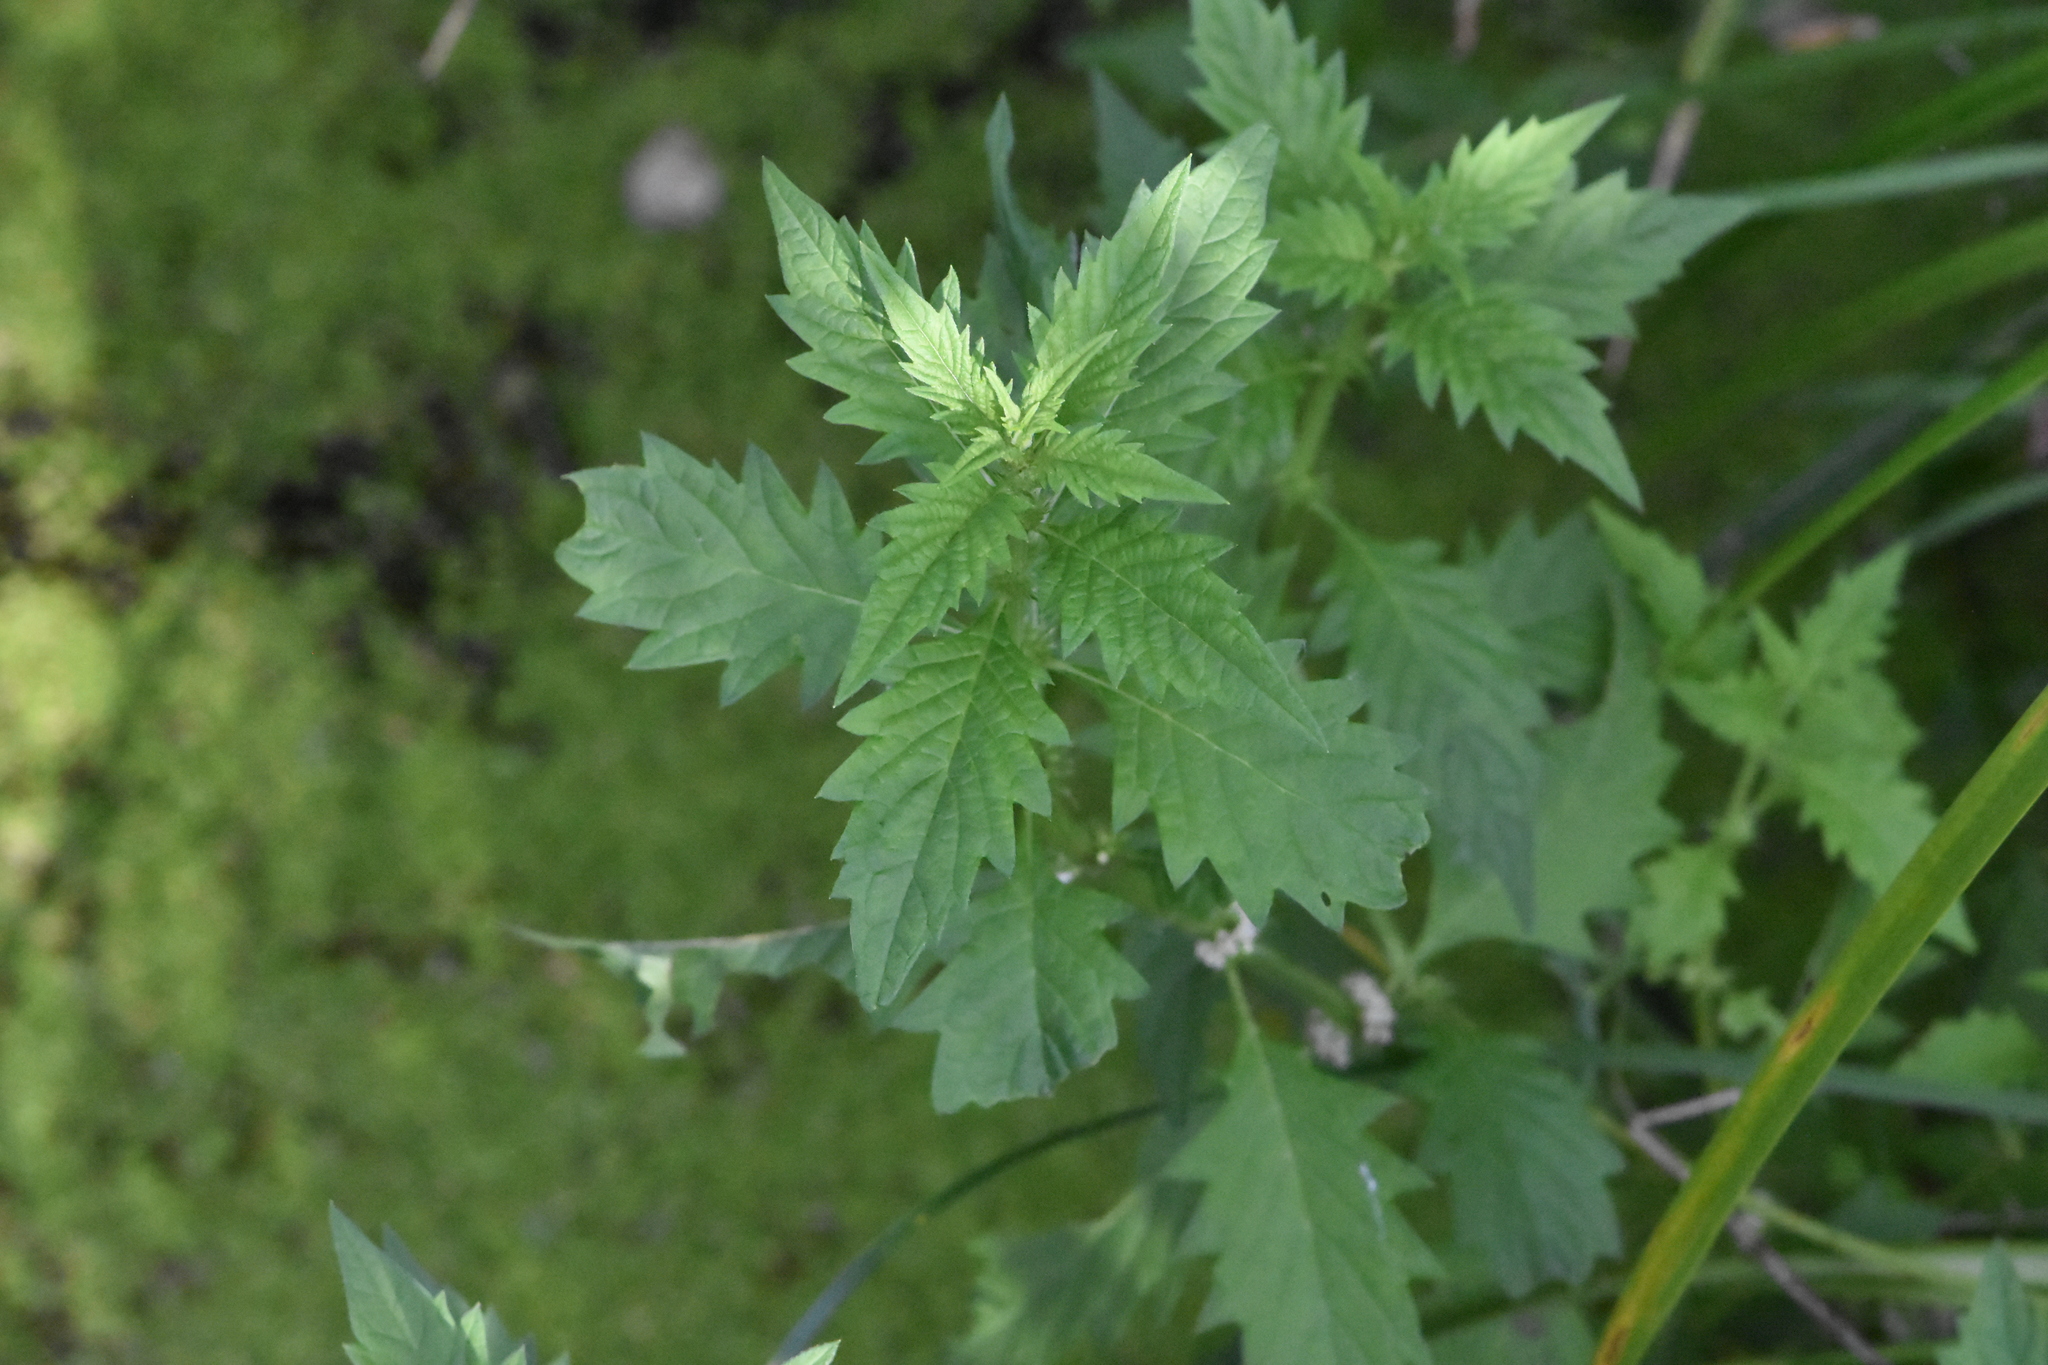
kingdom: Plantae
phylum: Tracheophyta
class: Magnoliopsida
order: Lamiales
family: Lamiaceae
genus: Lycopus
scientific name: Lycopus europaeus
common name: European bugleweed
